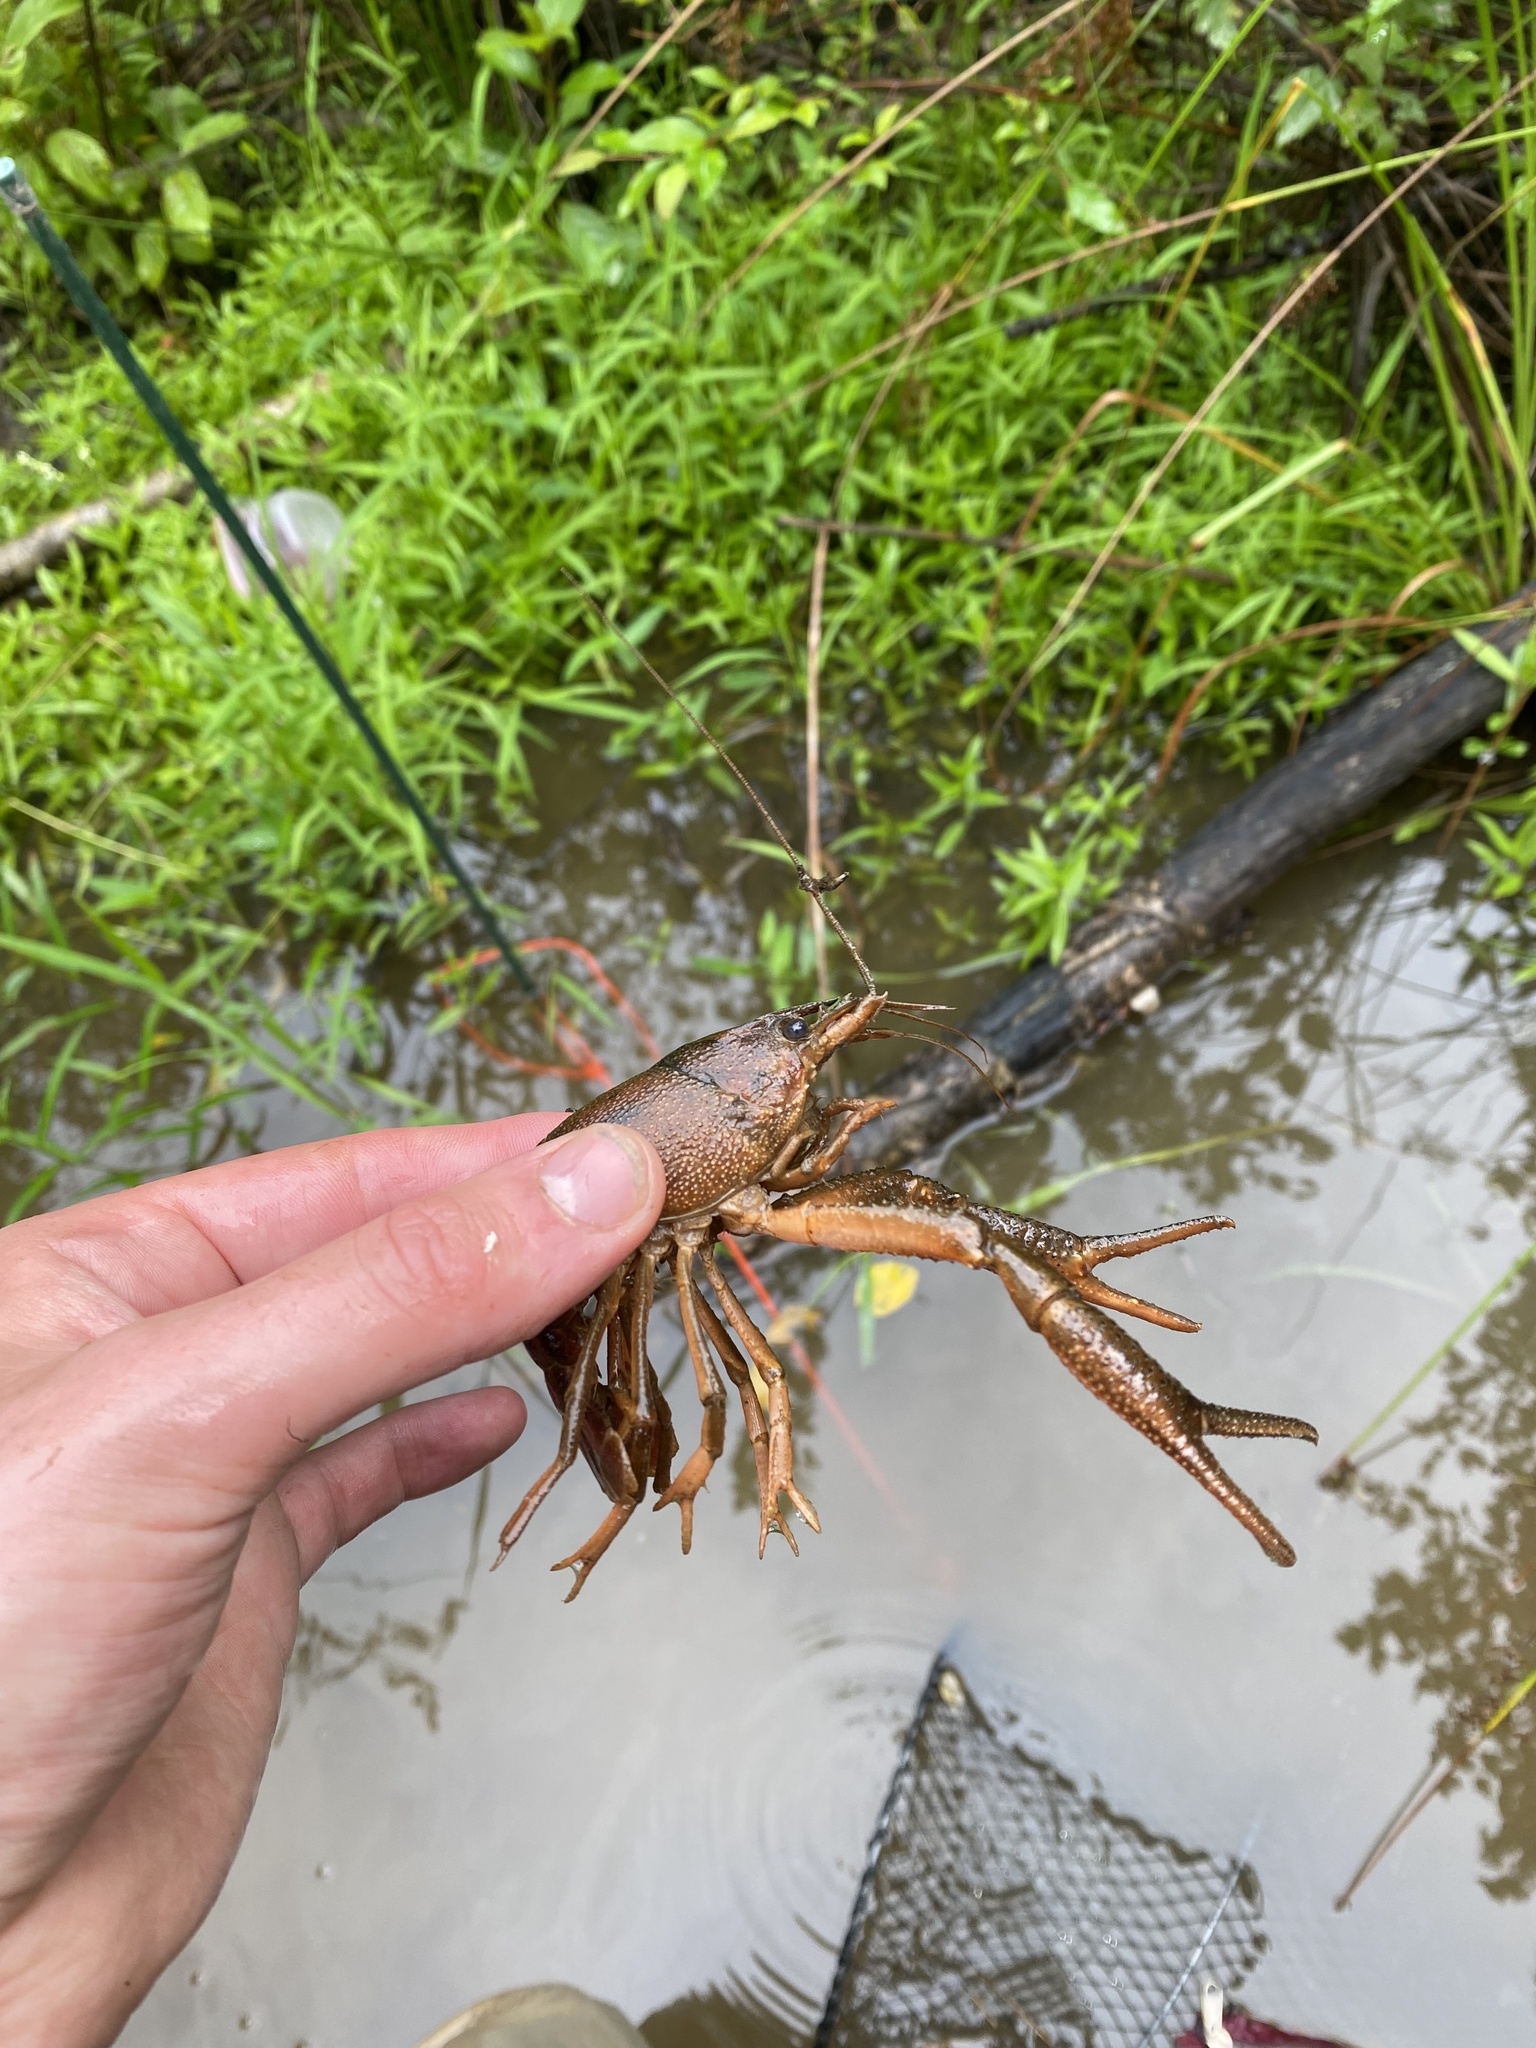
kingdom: Animalia
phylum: Arthropoda
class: Malacostraca
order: Decapoda
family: Cambaridae
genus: Procambarus
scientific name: Procambarus acutus
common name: White river crayfish
